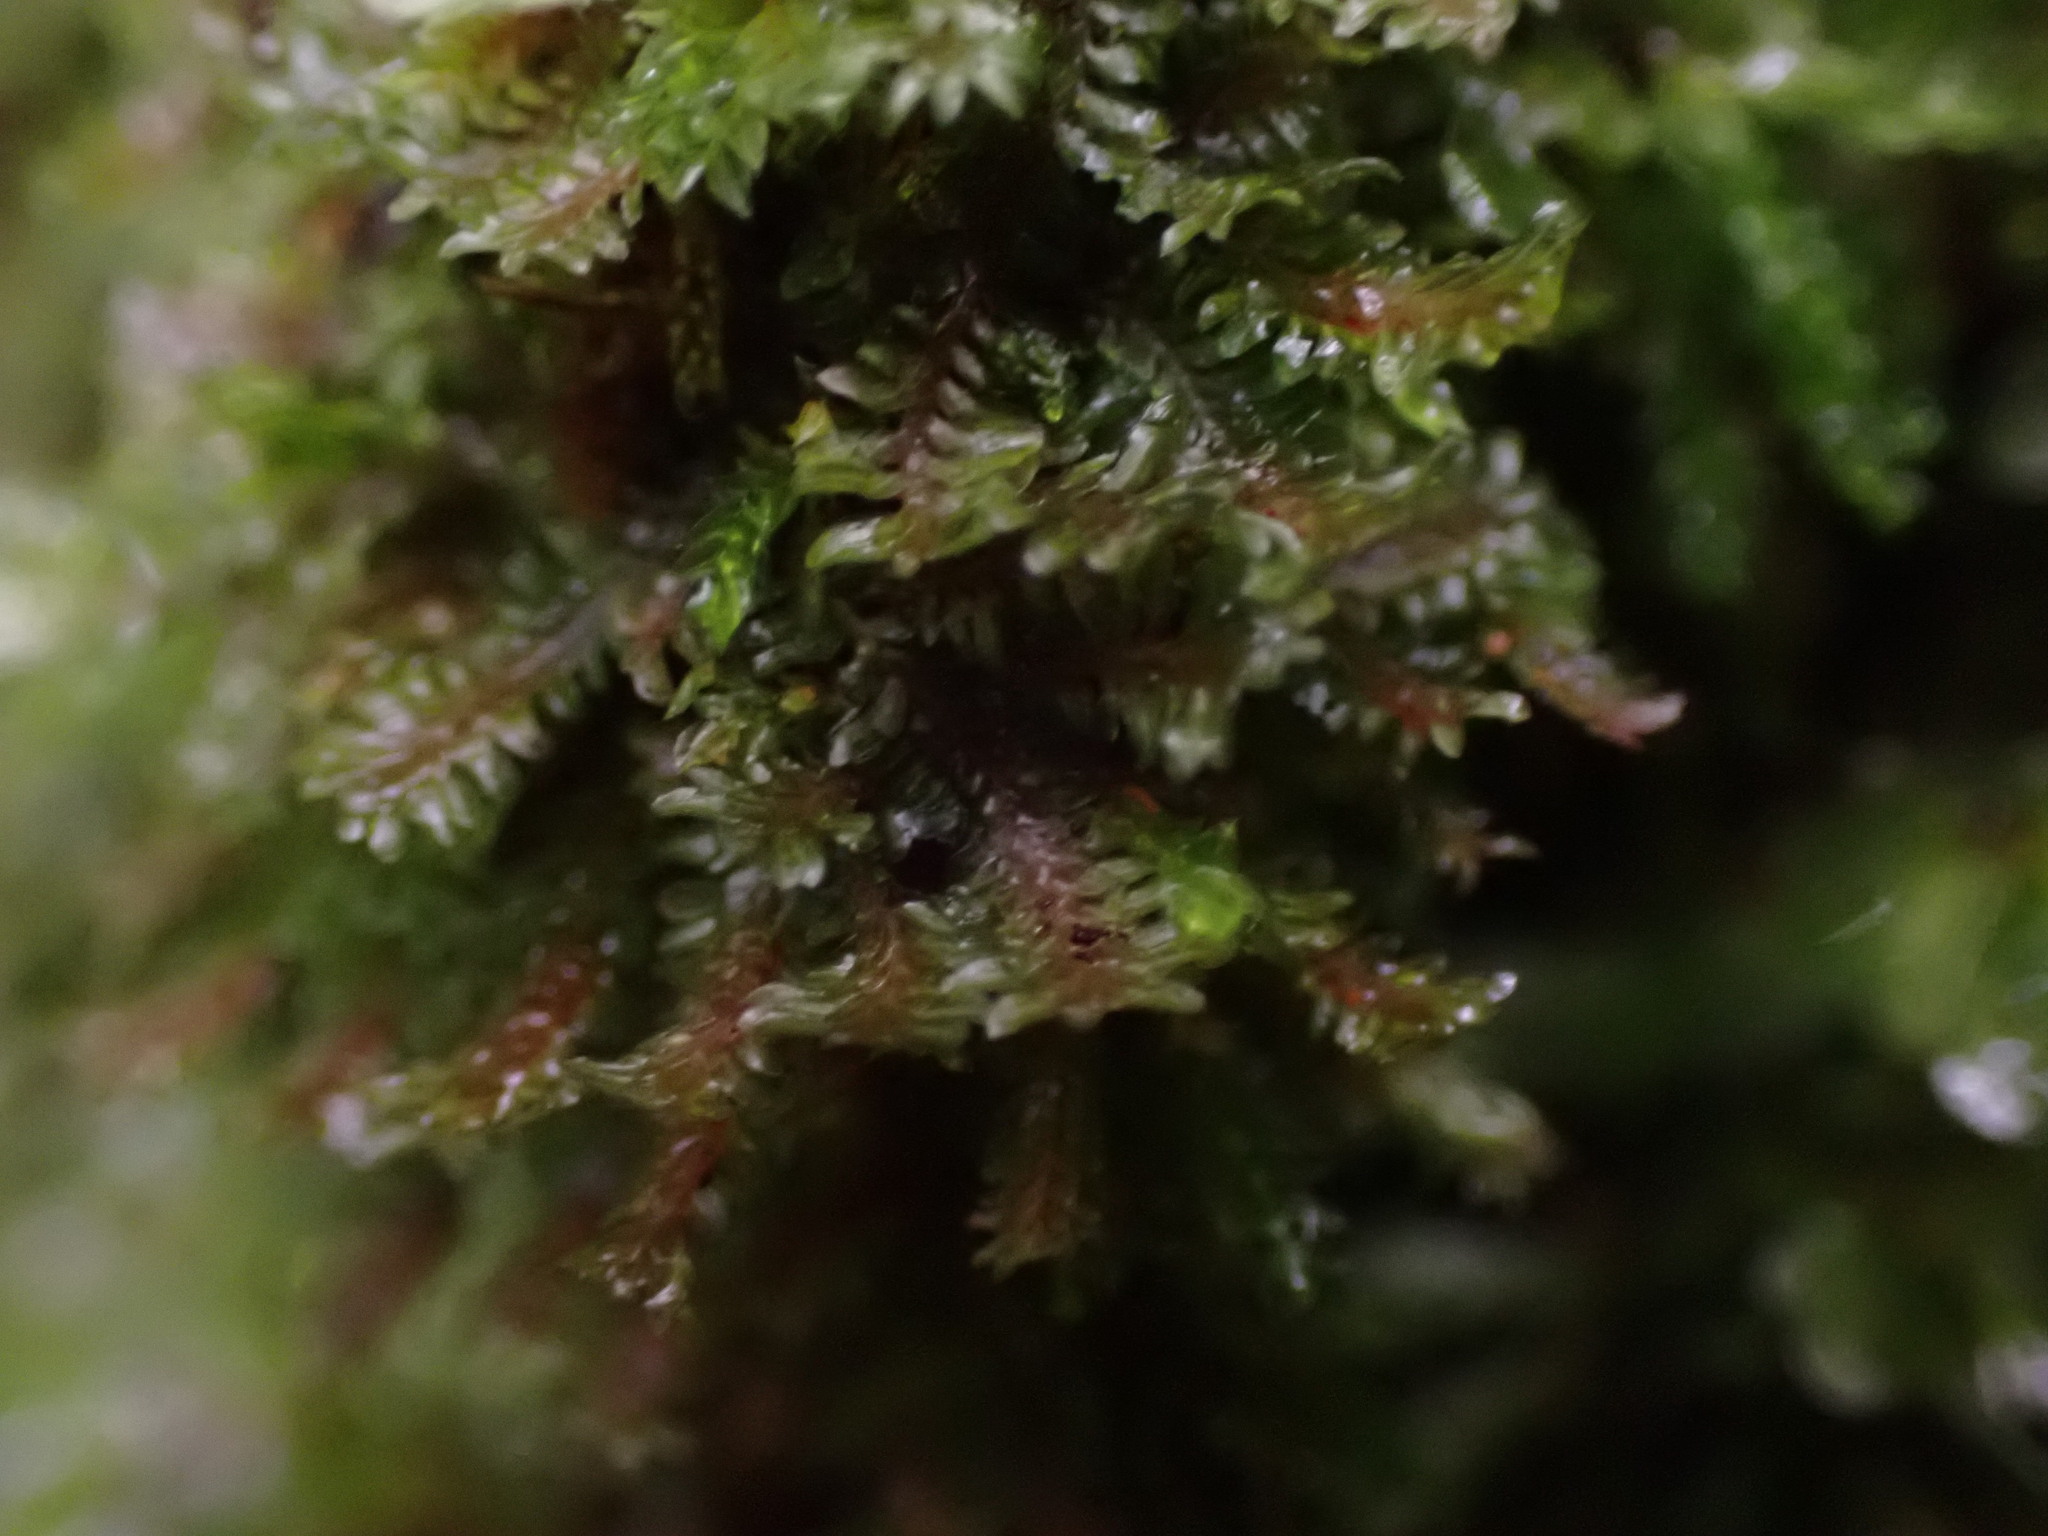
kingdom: Plantae
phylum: Marchantiophyta
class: Jungermanniopsida
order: Jungermanniales
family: Scapaniaceae
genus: Diplophyllum
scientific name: Diplophyllum albicans
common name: White earwort
